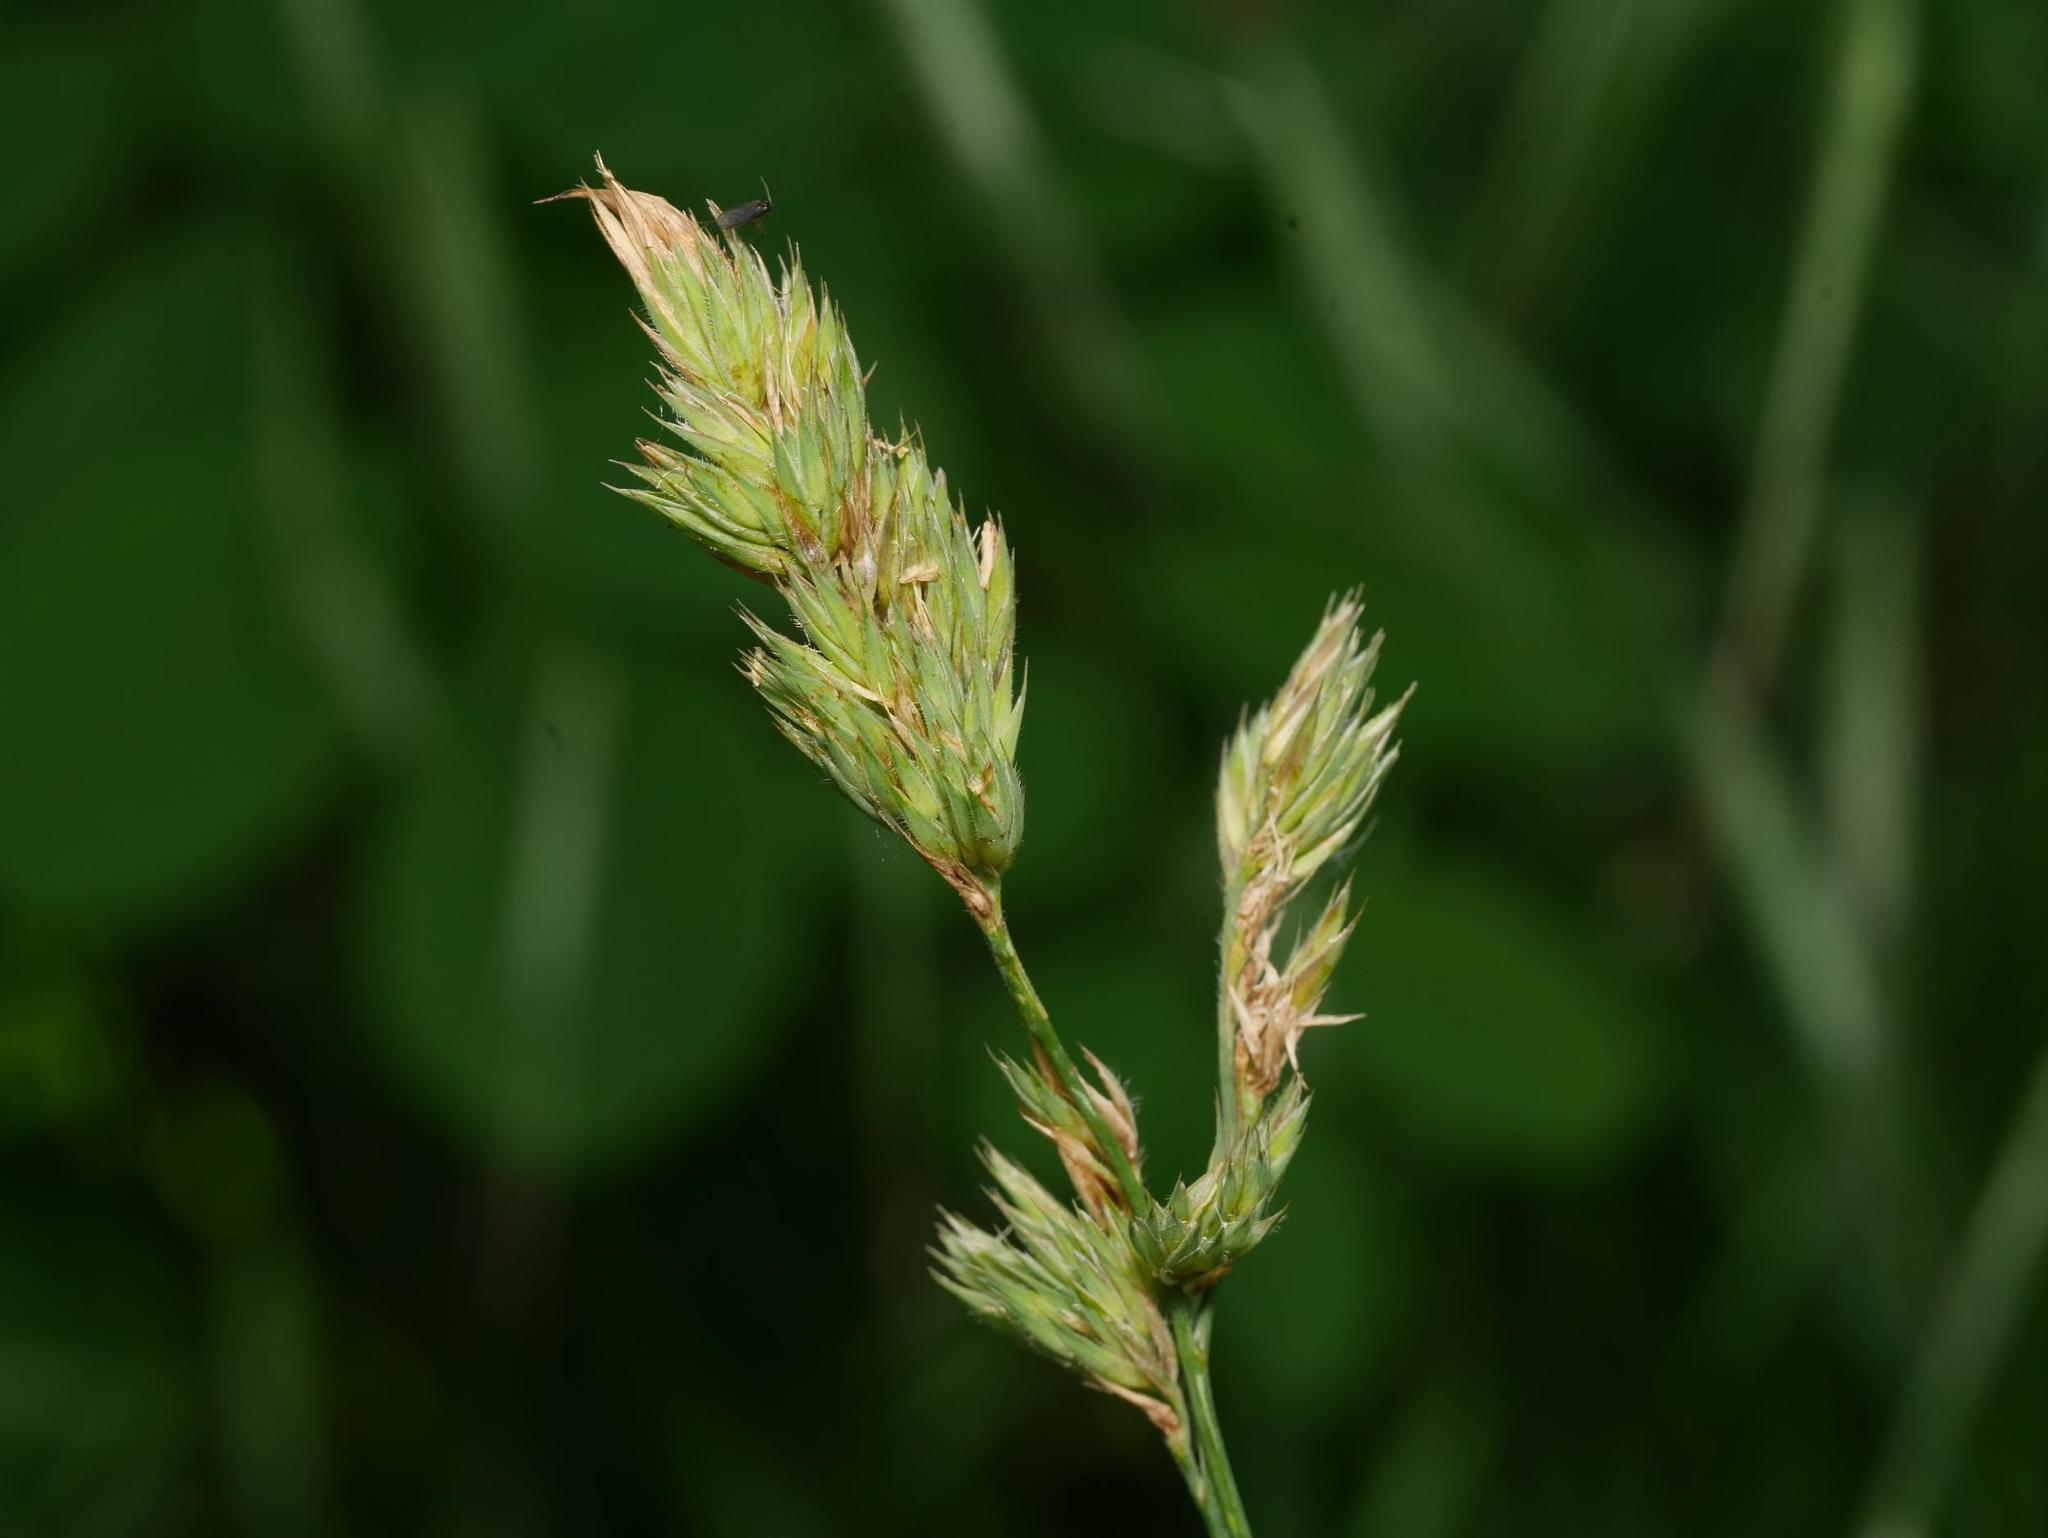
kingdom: Plantae
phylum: Tracheophyta
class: Liliopsida
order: Poales
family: Poaceae
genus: Dactylis
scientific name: Dactylis glomerata
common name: Orchardgrass
